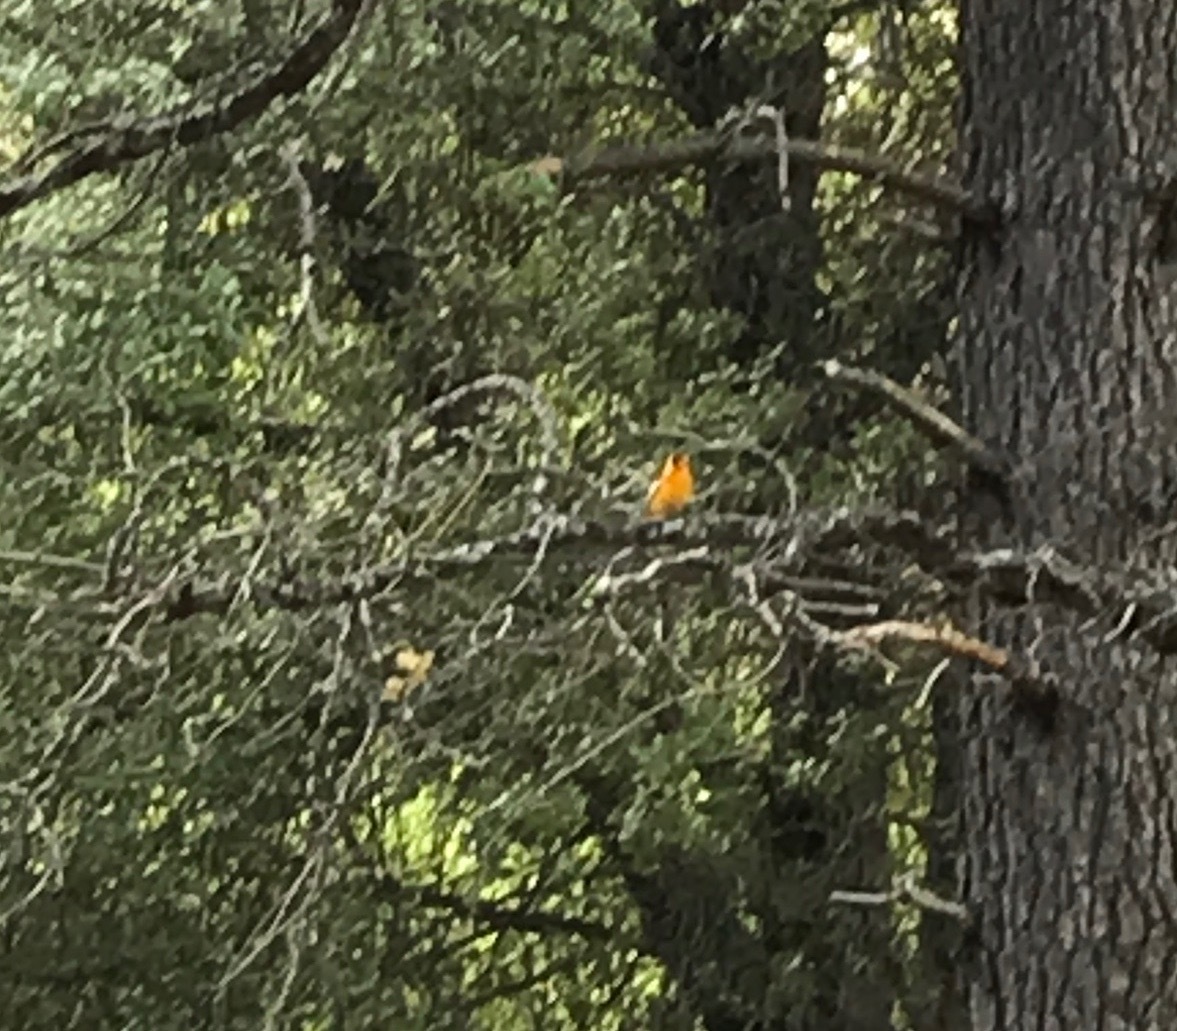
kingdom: Animalia
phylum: Chordata
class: Aves
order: Passeriformes
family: Icteridae
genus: Icterus
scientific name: Icterus bullockii
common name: Bullock's oriole
